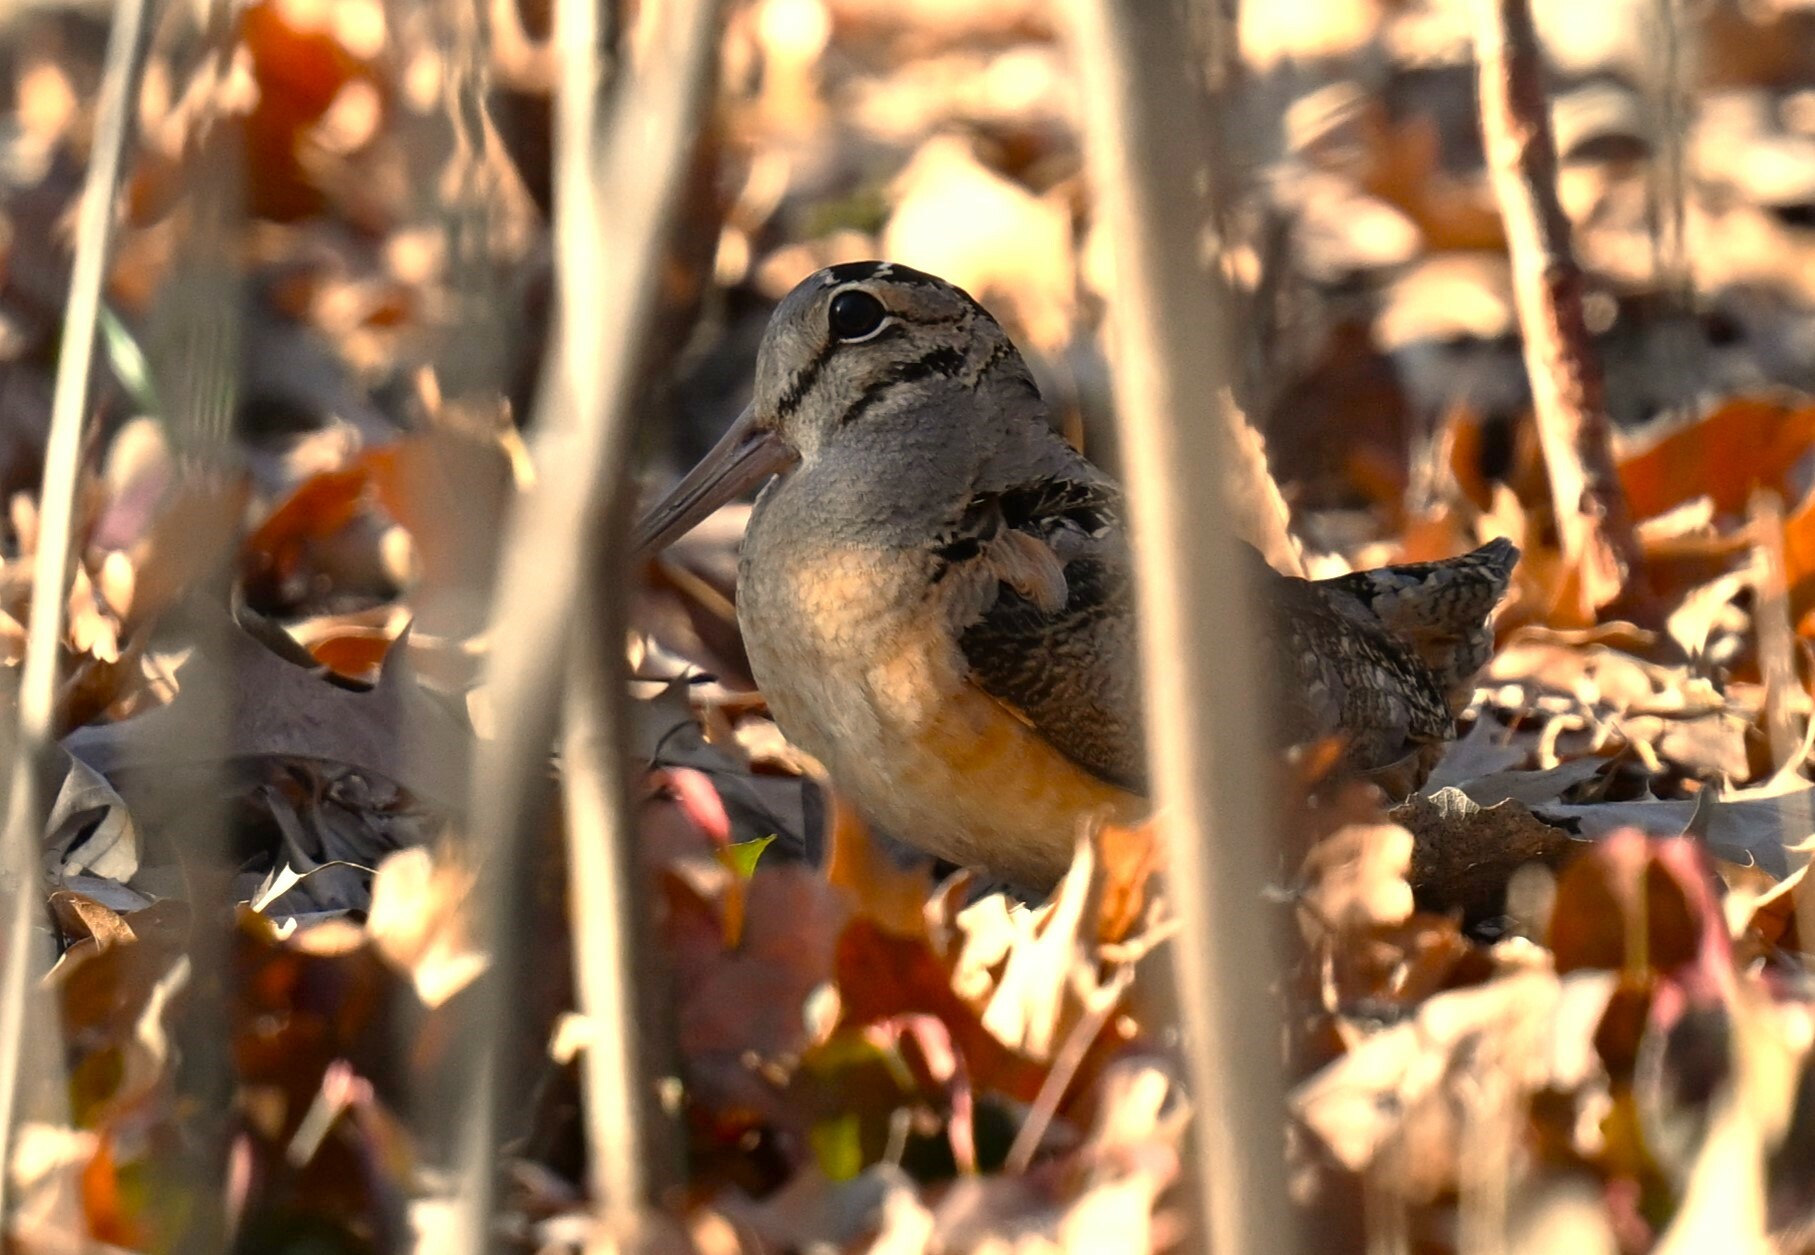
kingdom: Animalia
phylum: Chordata
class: Aves
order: Charadriiformes
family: Scolopacidae
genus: Scolopax
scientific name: Scolopax minor
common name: American woodcock
